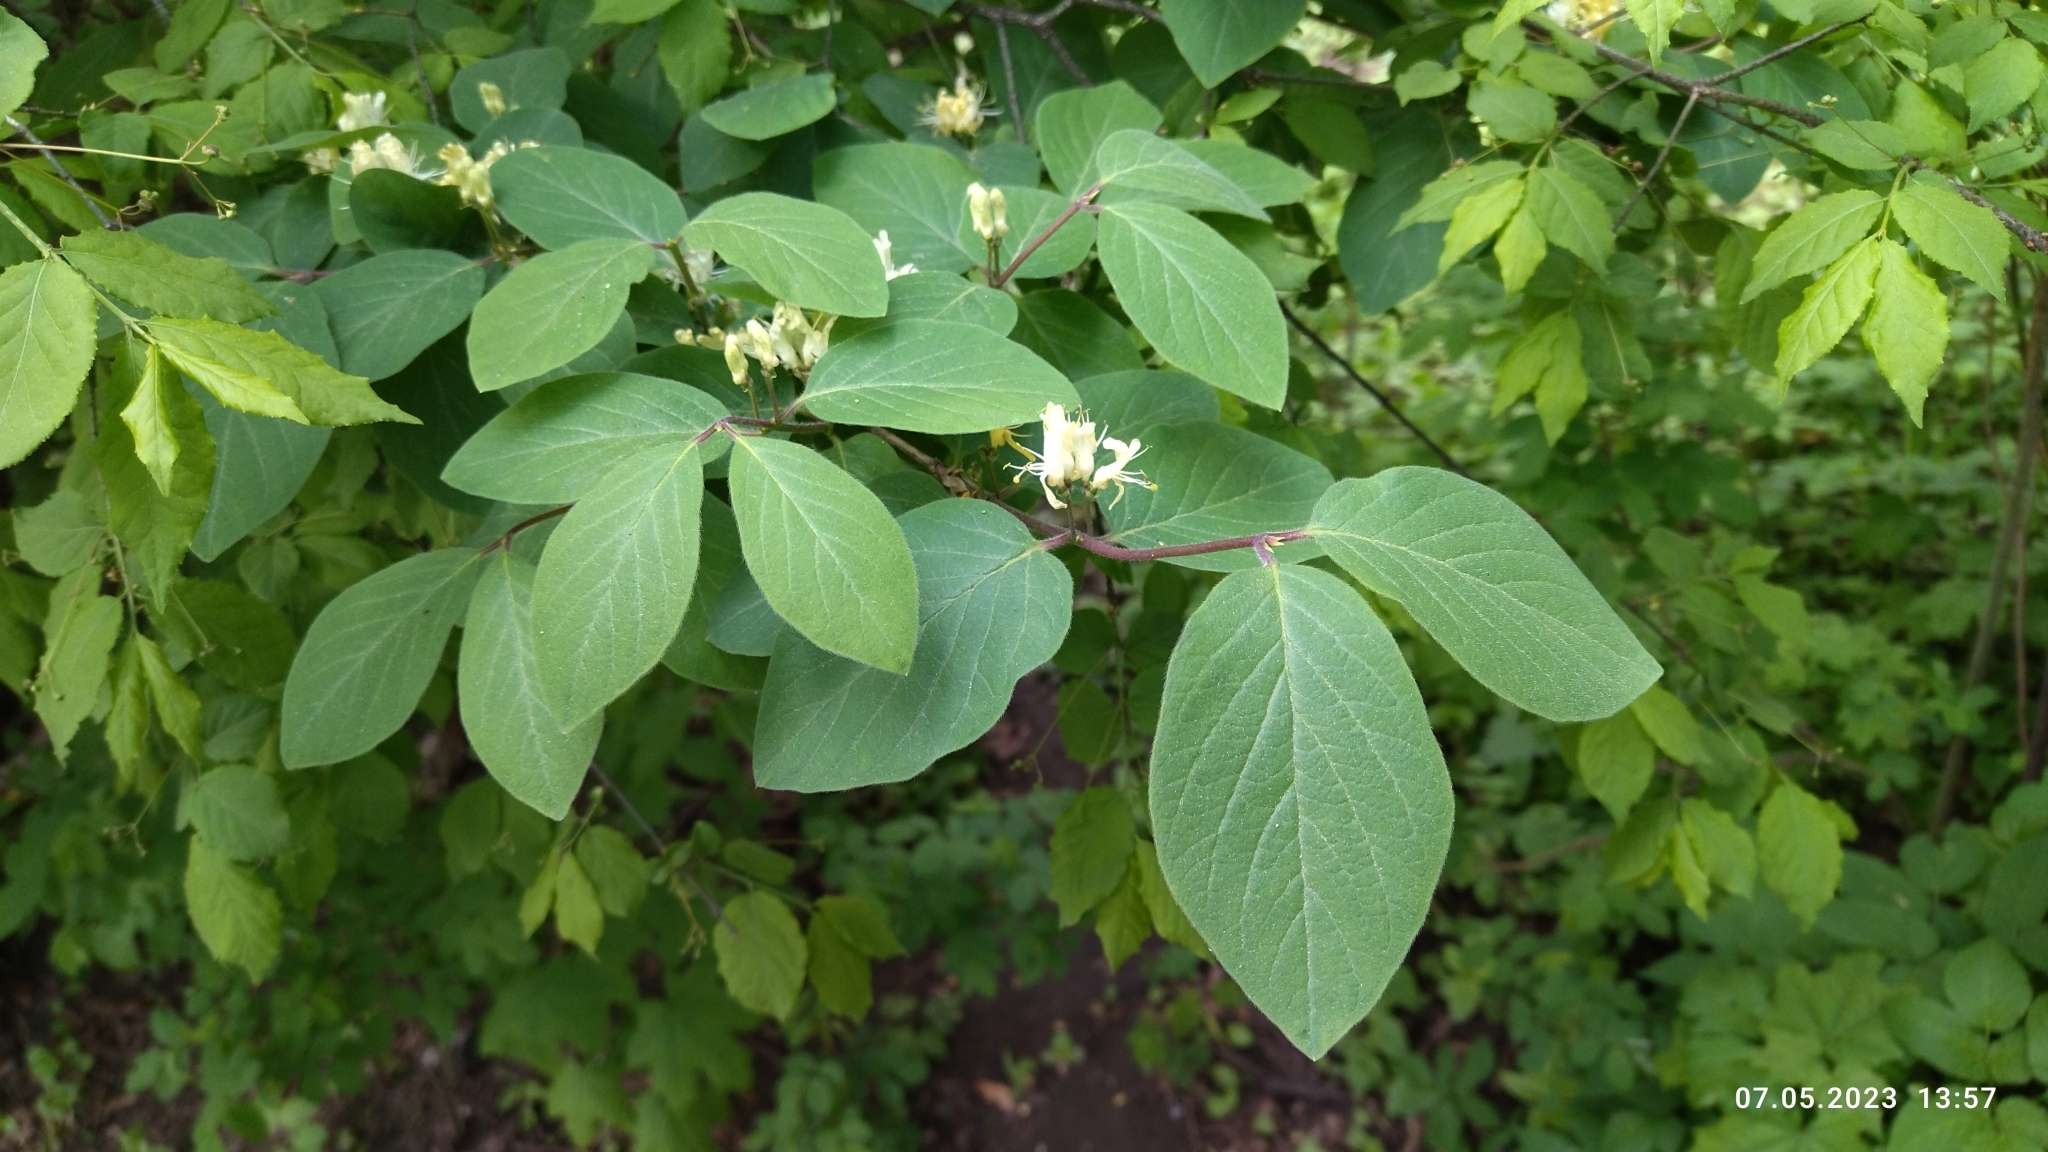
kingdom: Plantae
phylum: Tracheophyta
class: Magnoliopsida
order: Dipsacales
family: Caprifoliaceae
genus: Lonicera
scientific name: Lonicera xylosteum
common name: Fly honeysuckle
